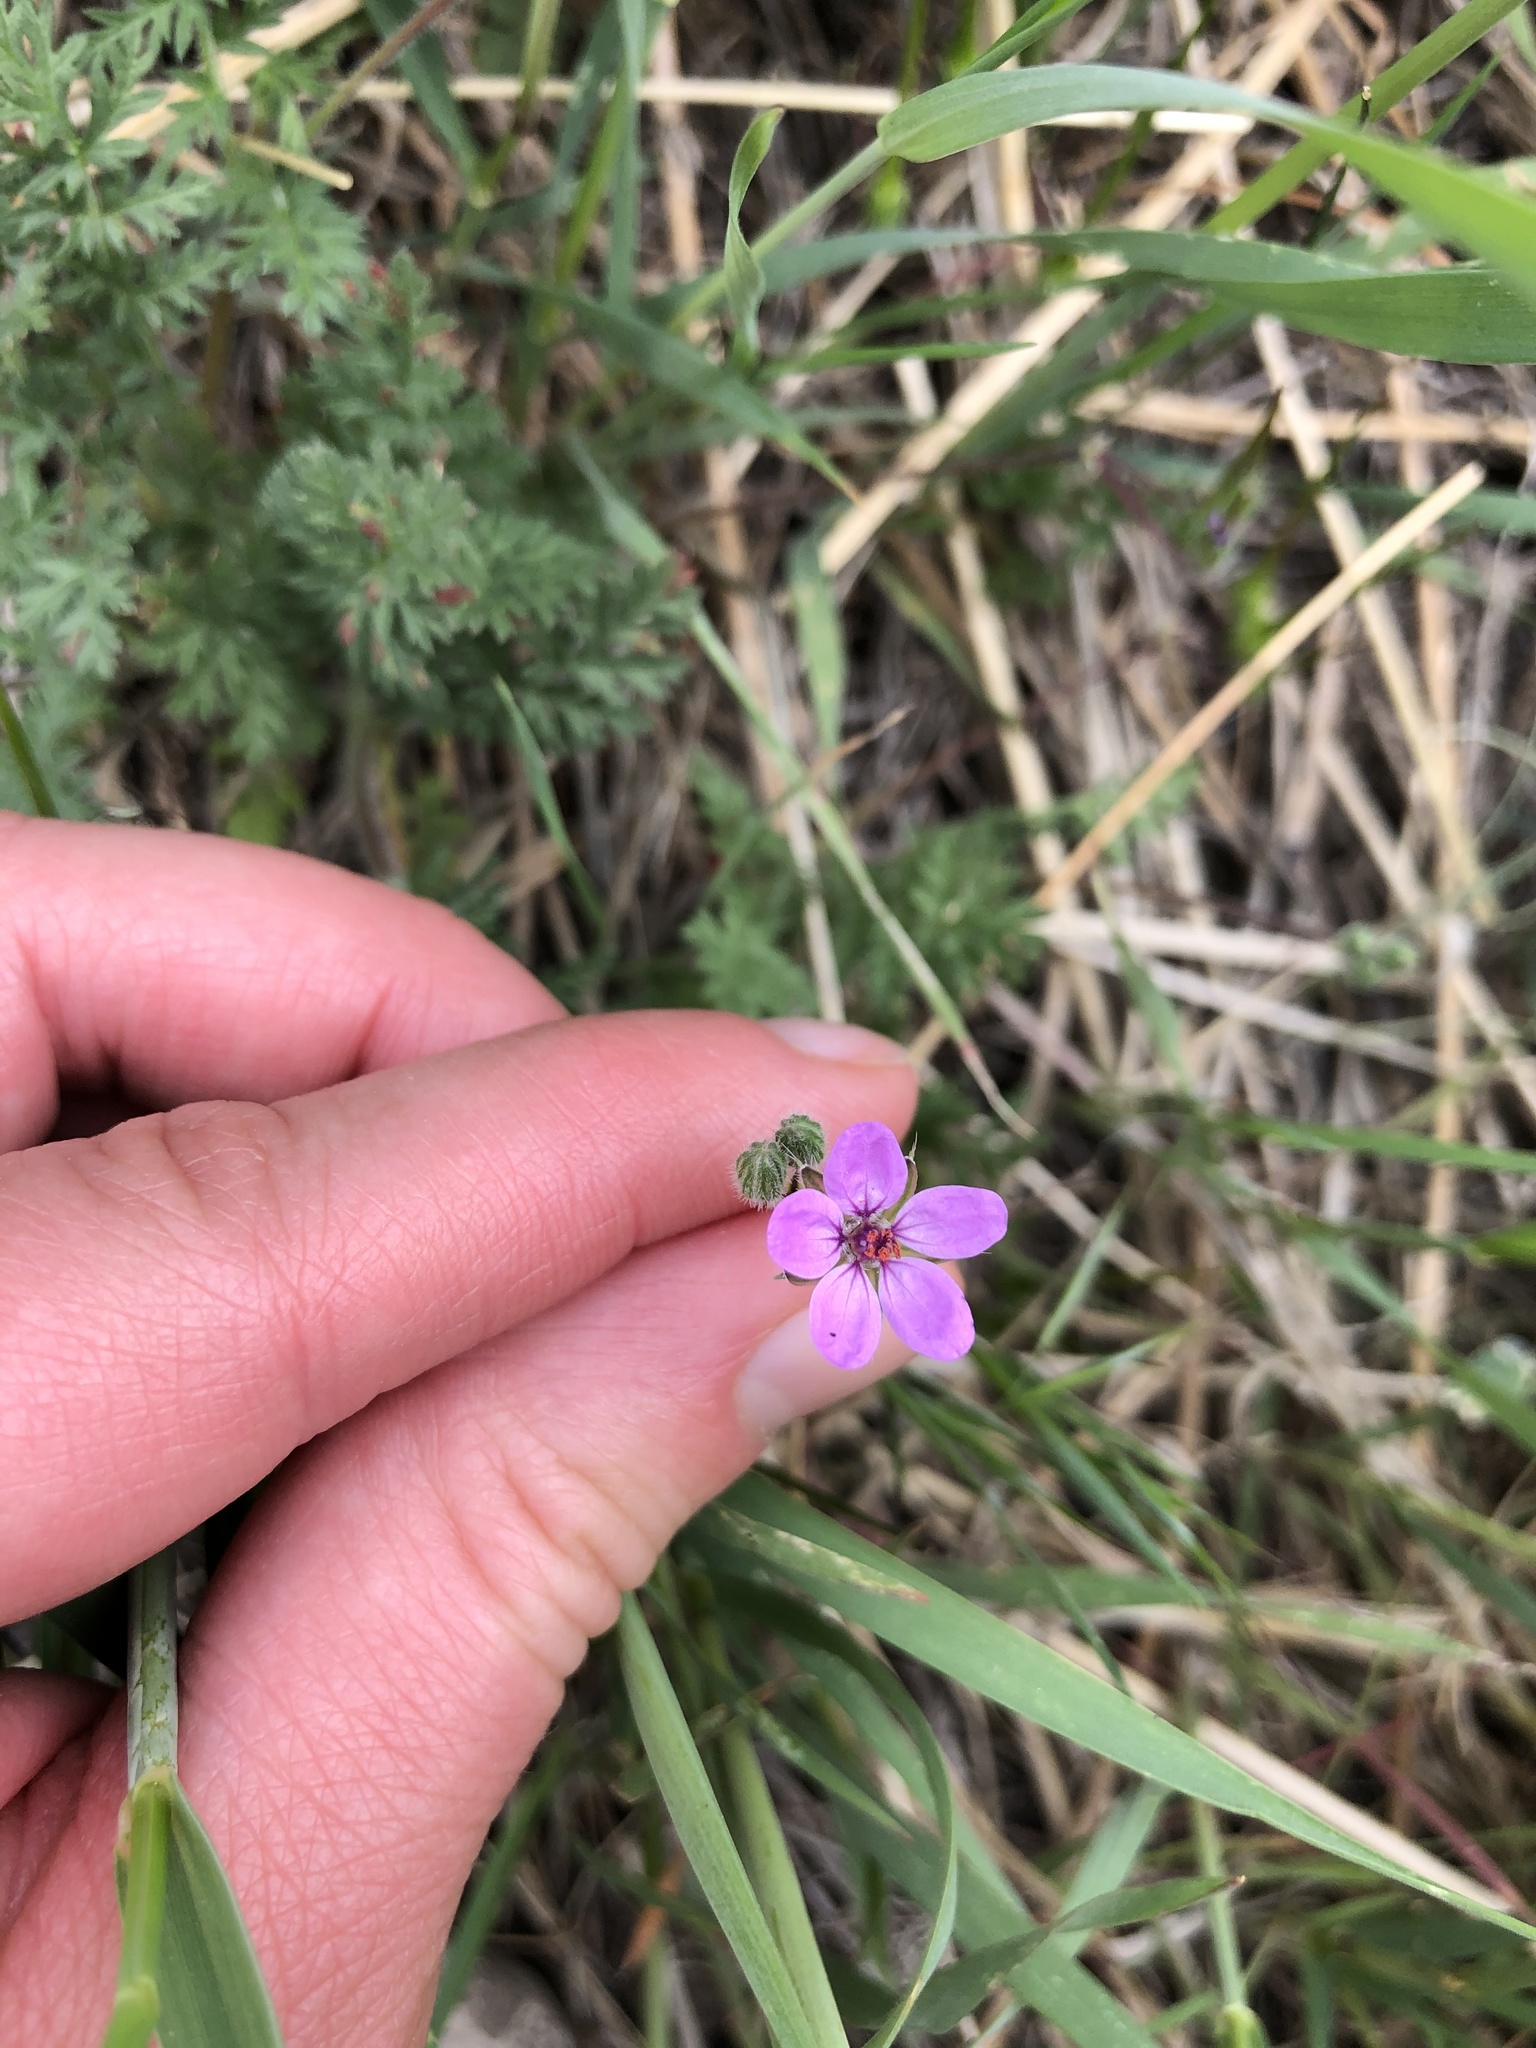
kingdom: Plantae
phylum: Tracheophyta
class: Magnoliopsida
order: Geraniales
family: Geraniaceae
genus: Erodium
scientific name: Erodium cicutarium
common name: Common stork's-bill
